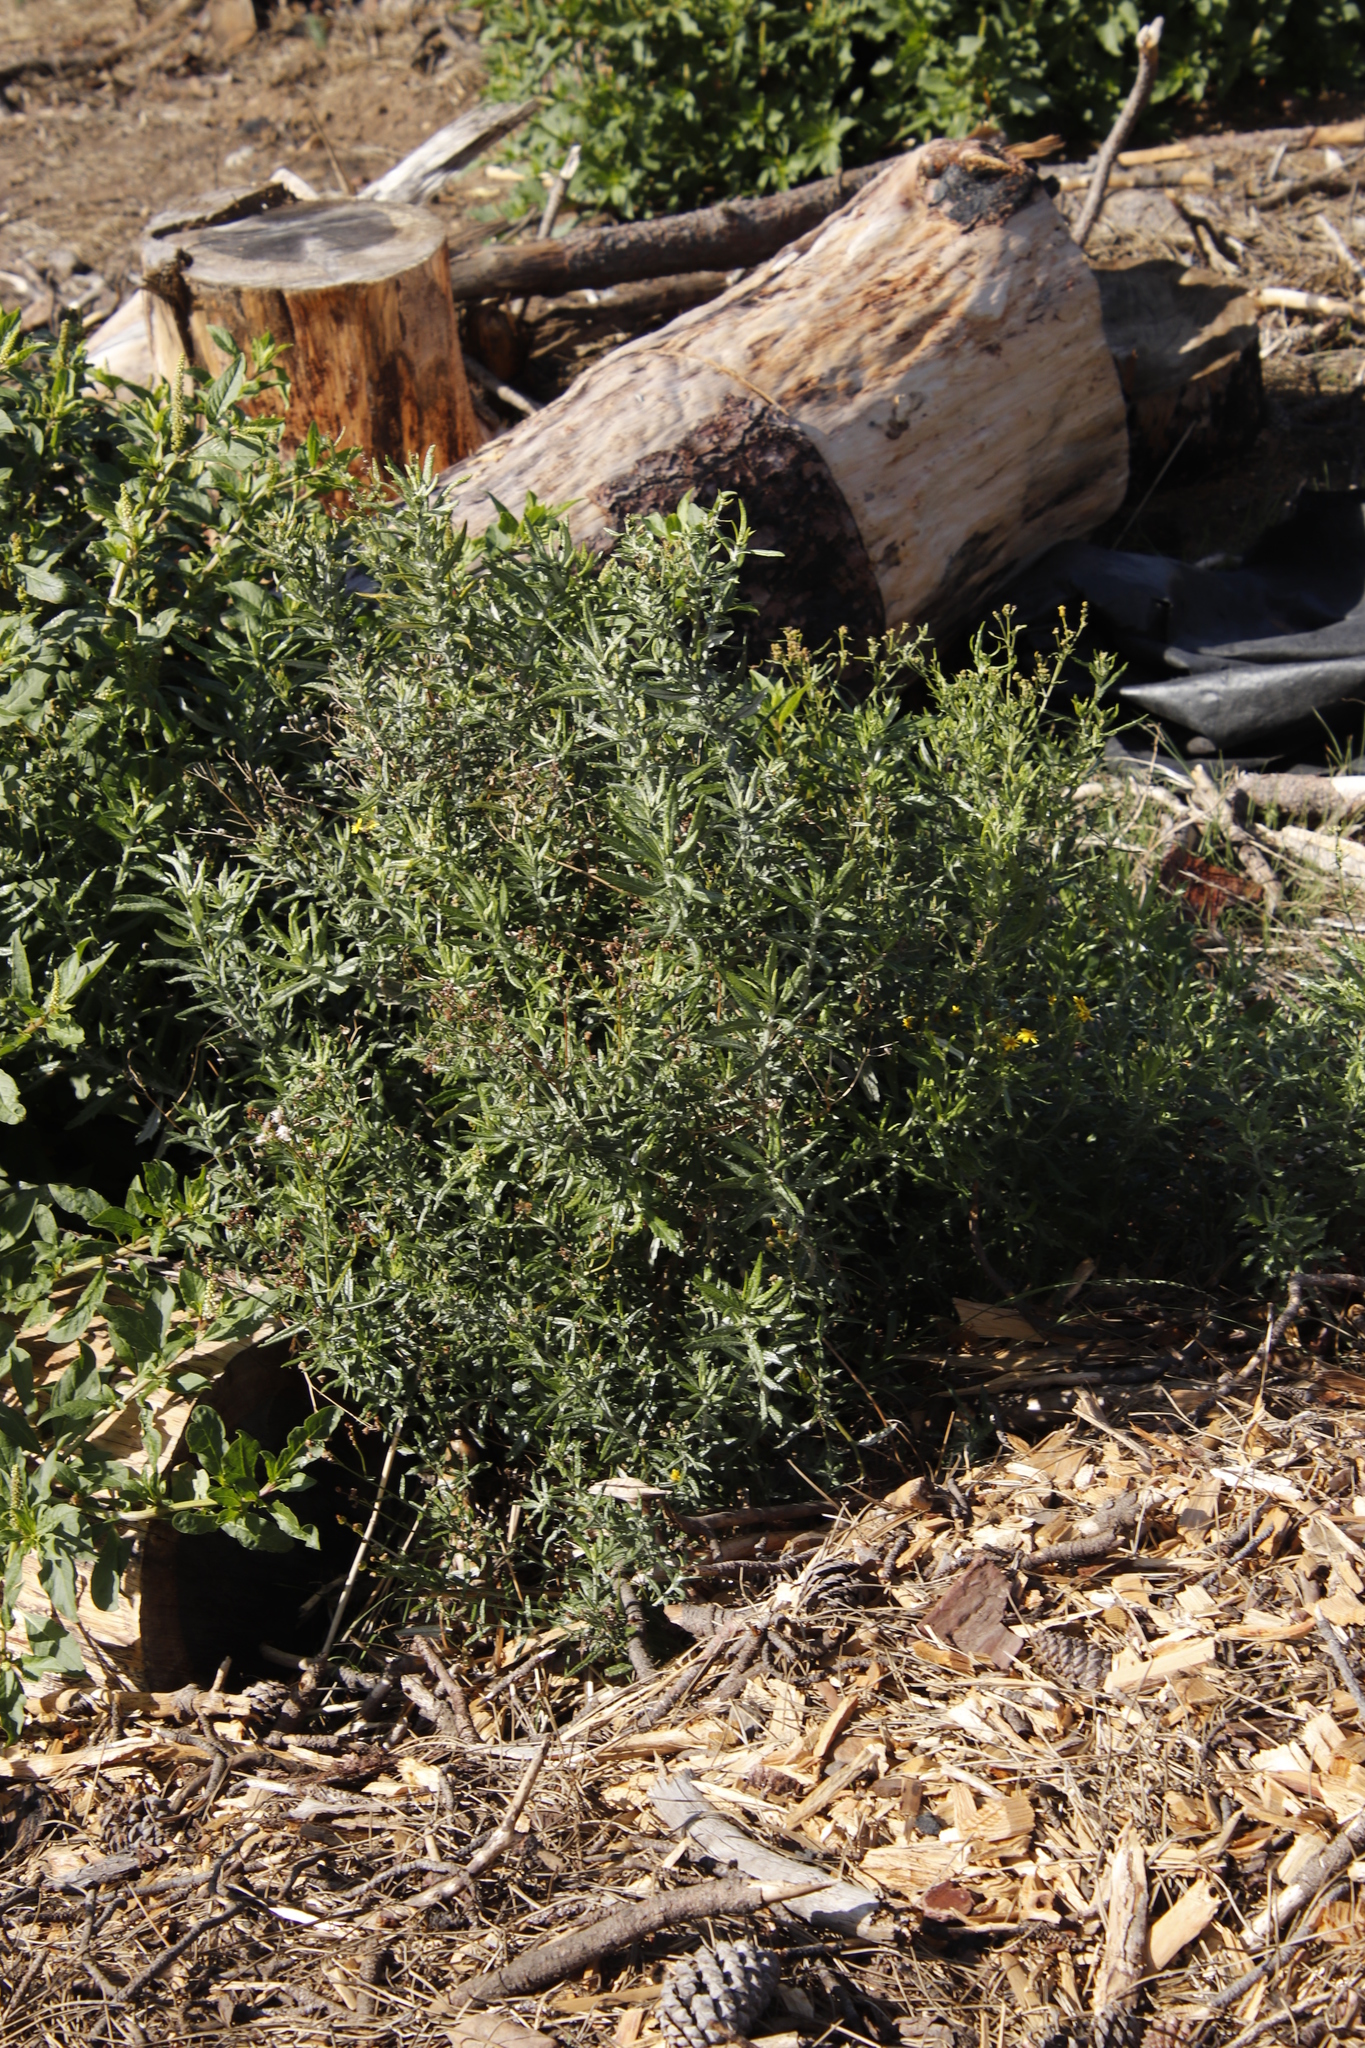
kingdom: Plantae
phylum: Tracheophyta
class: Magnoliopsida
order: Asterales
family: Asteraceae
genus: Senecio
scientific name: Senecio pterophorus
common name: Shoddy ragwort
